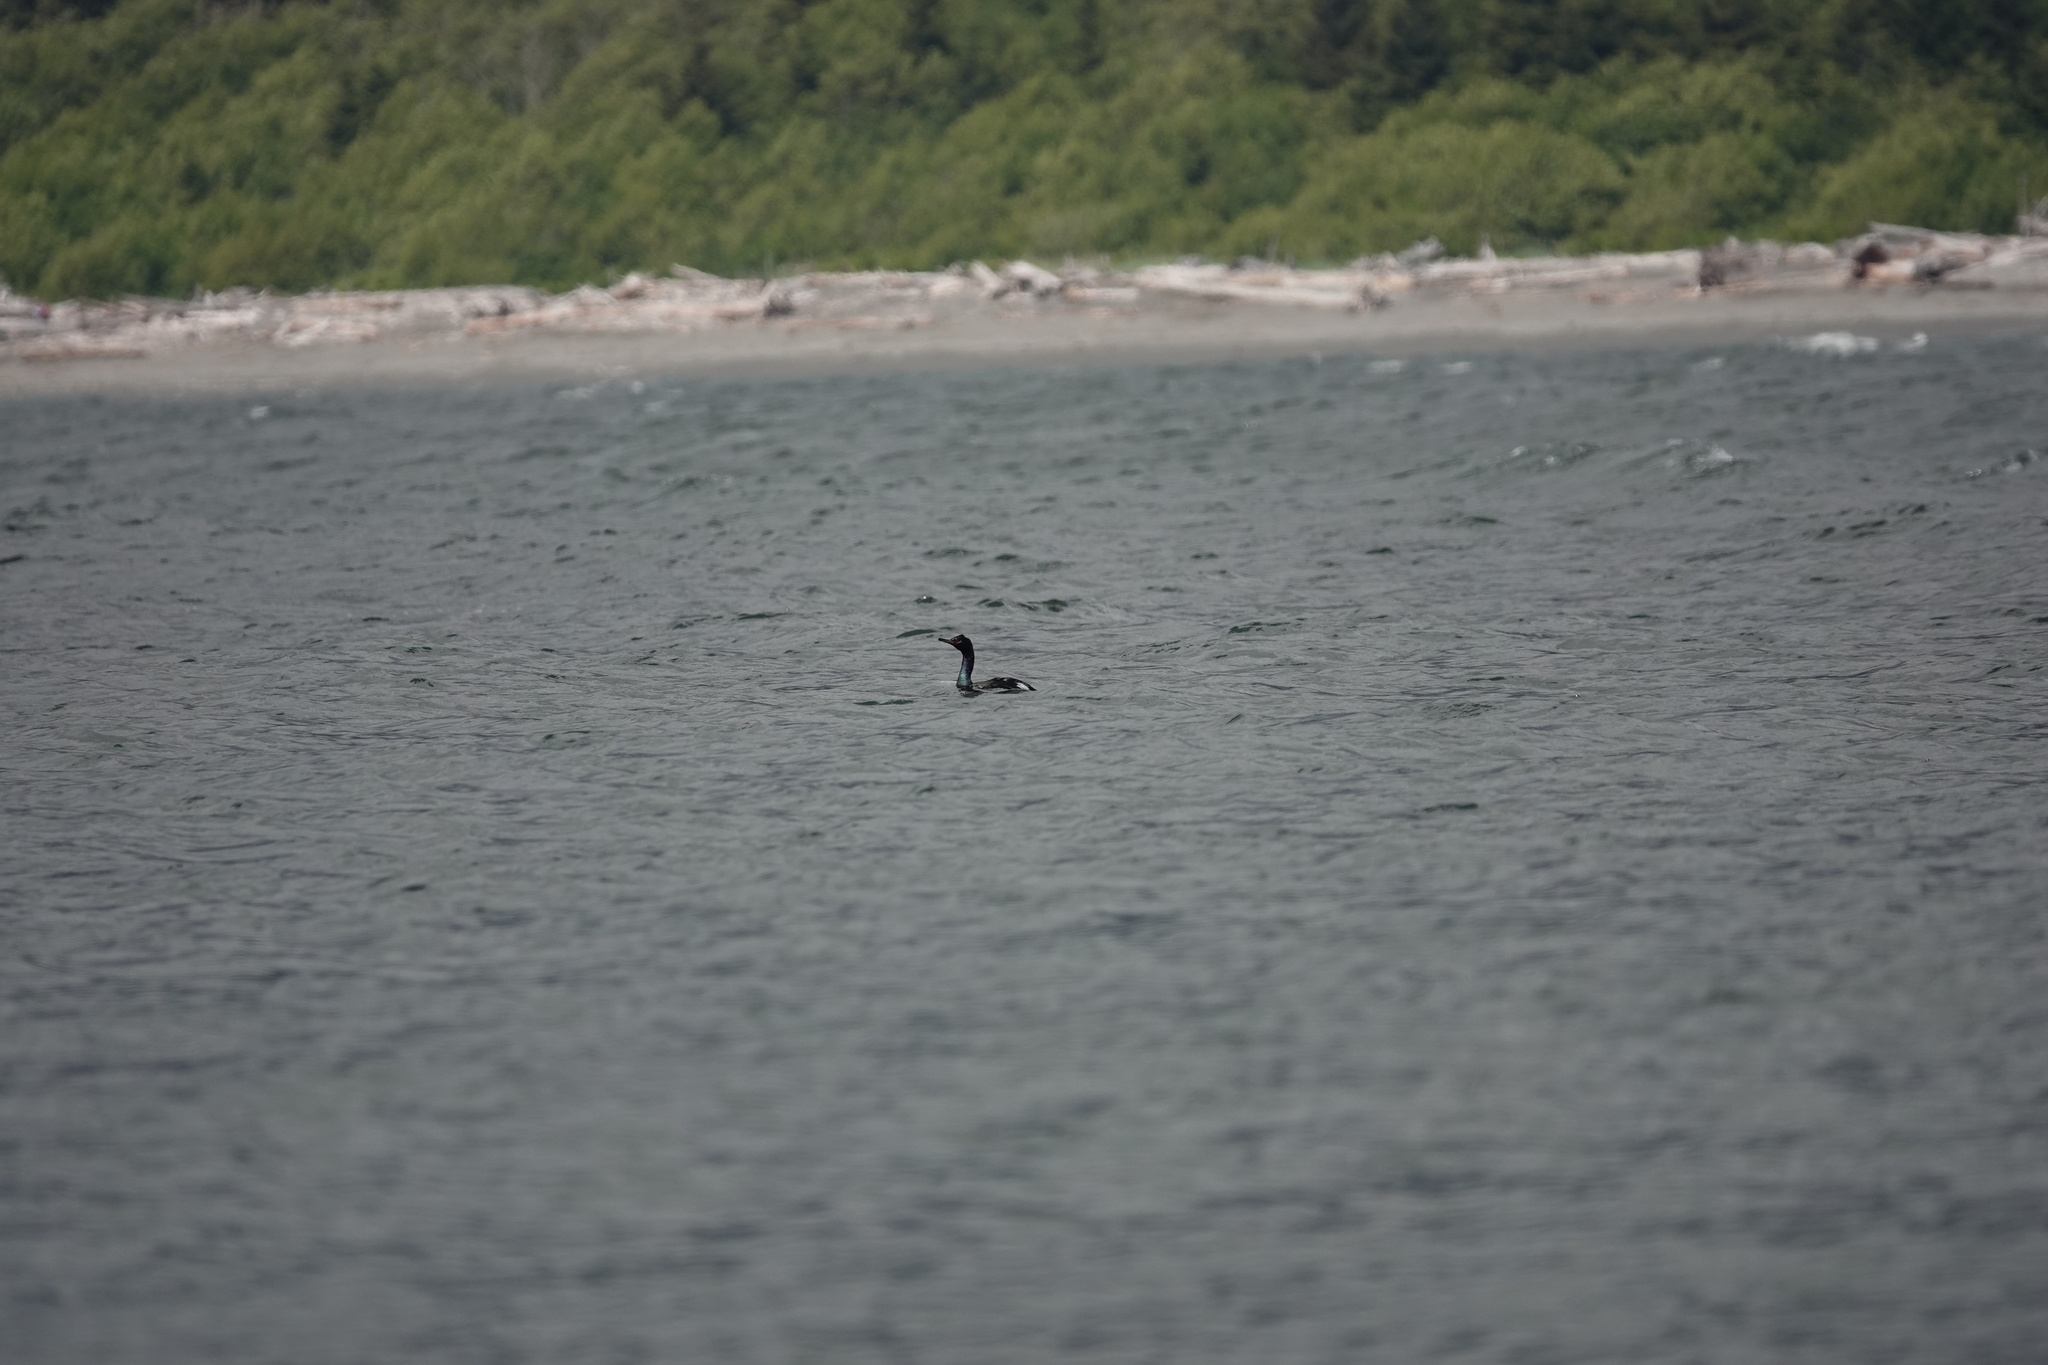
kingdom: Animalia
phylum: Chordata
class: Aves
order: Suliformes
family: Phalacrocoracidae
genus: Phalacrocorax
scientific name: Phalacrocorax pelagicus
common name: Pelagic cormorant
